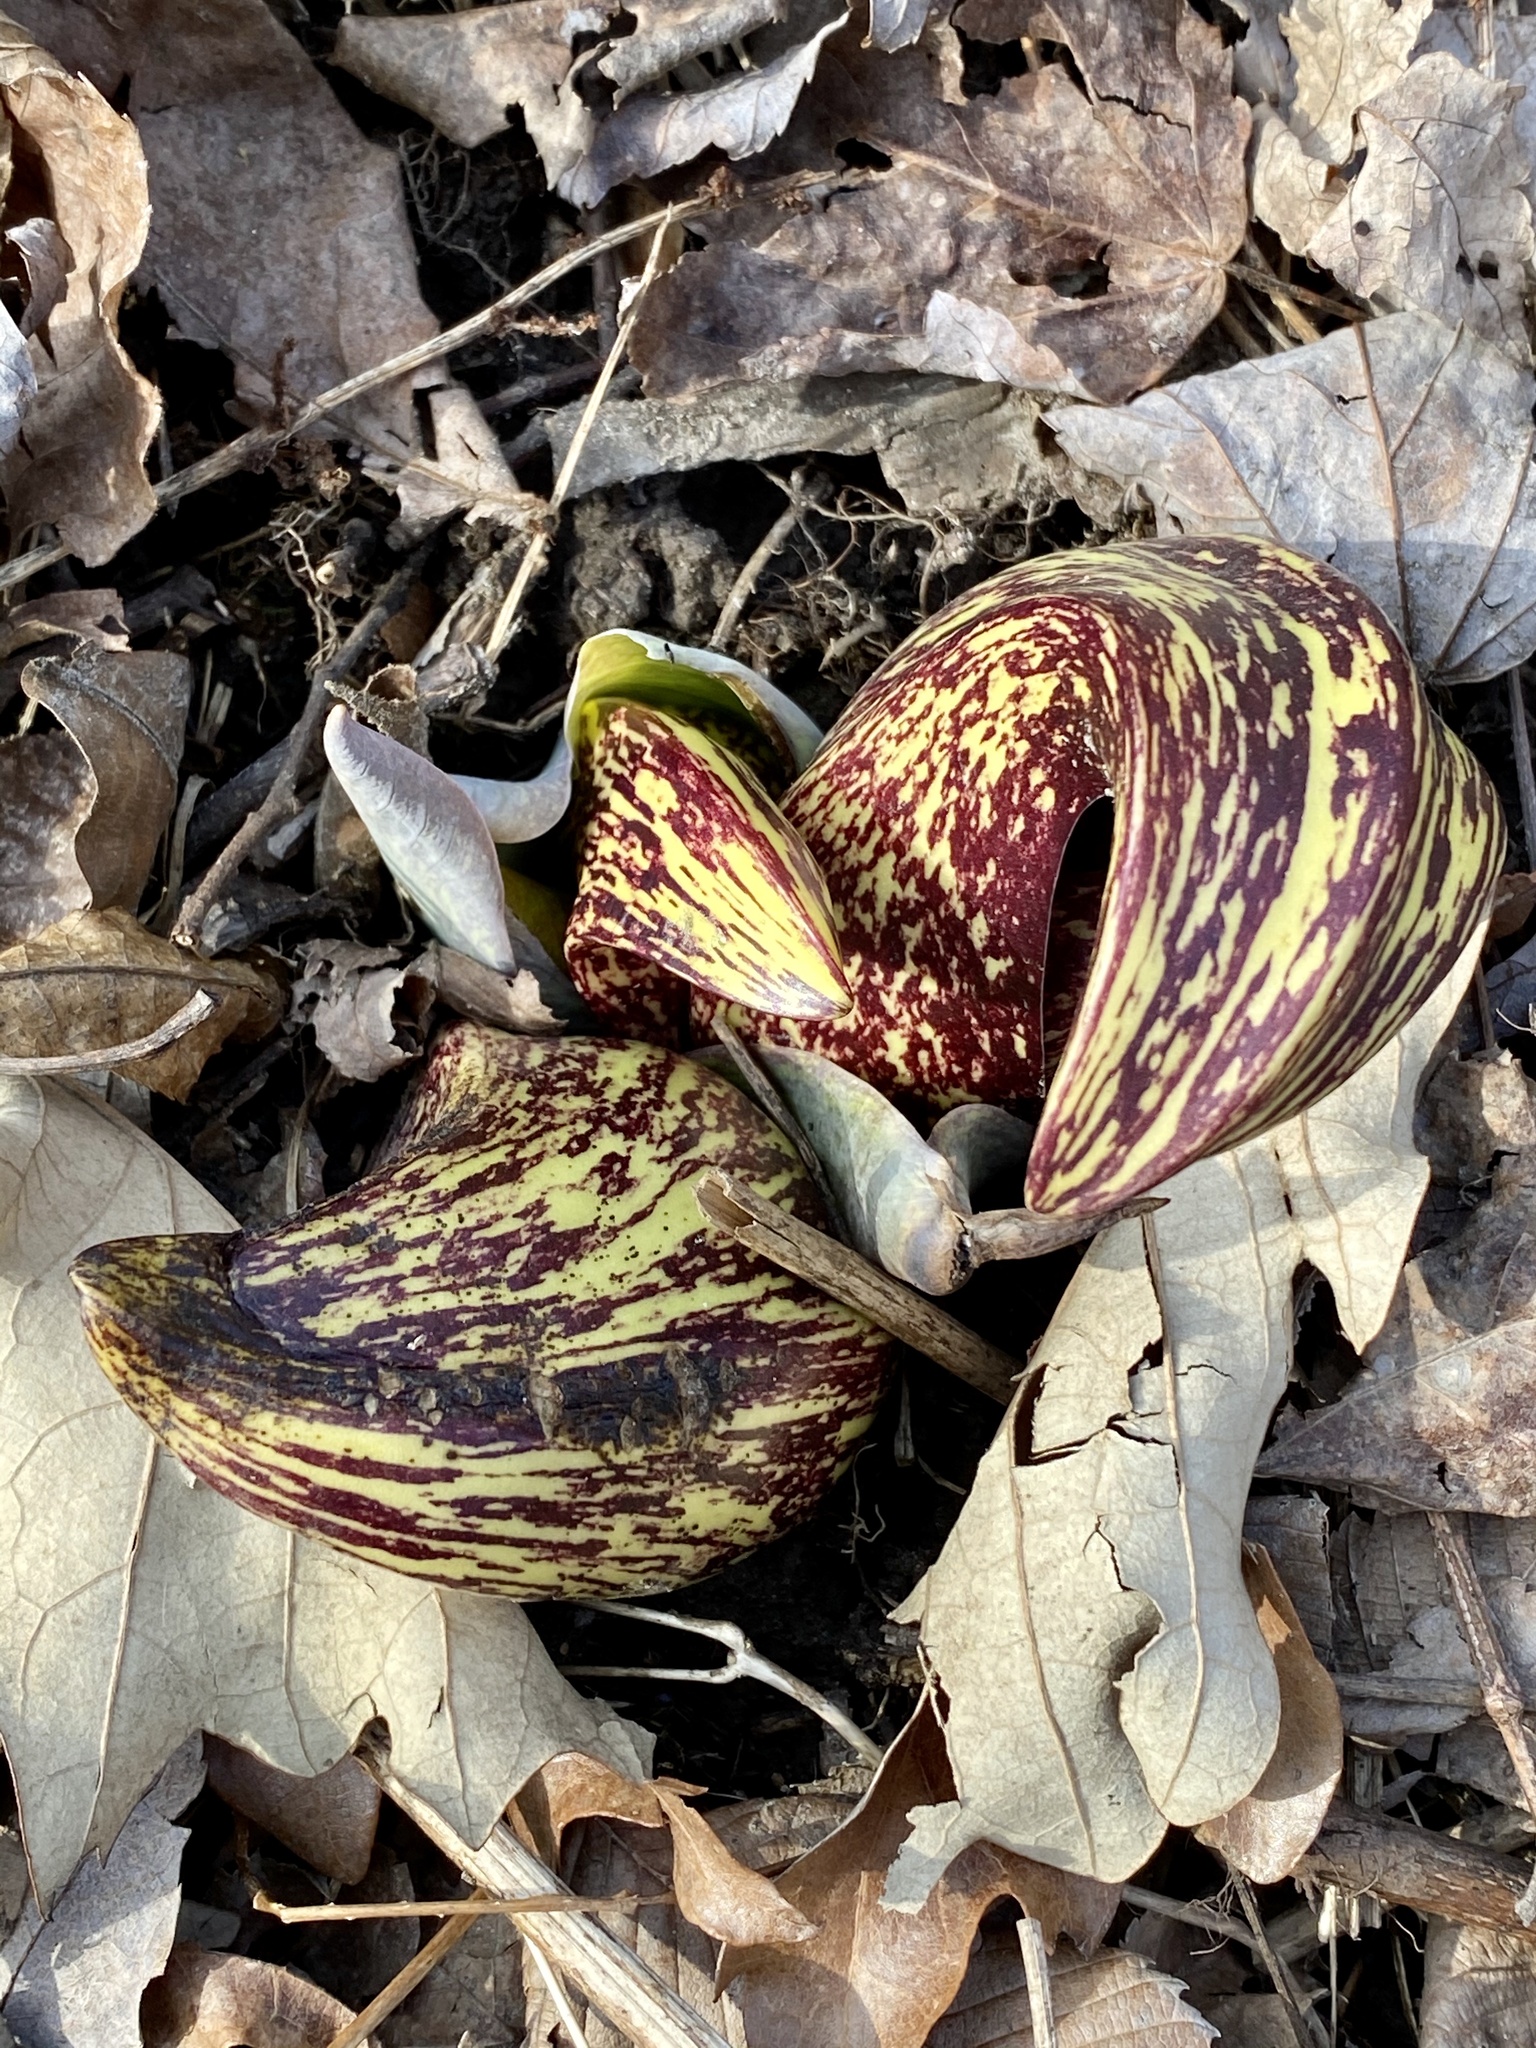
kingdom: Plantae
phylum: Tracheophyta
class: Liliopsida
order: Alismatales
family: Araceae
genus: Symplocarpus
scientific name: Symplocarpus foetidus
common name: Eastern skunk cabbage
